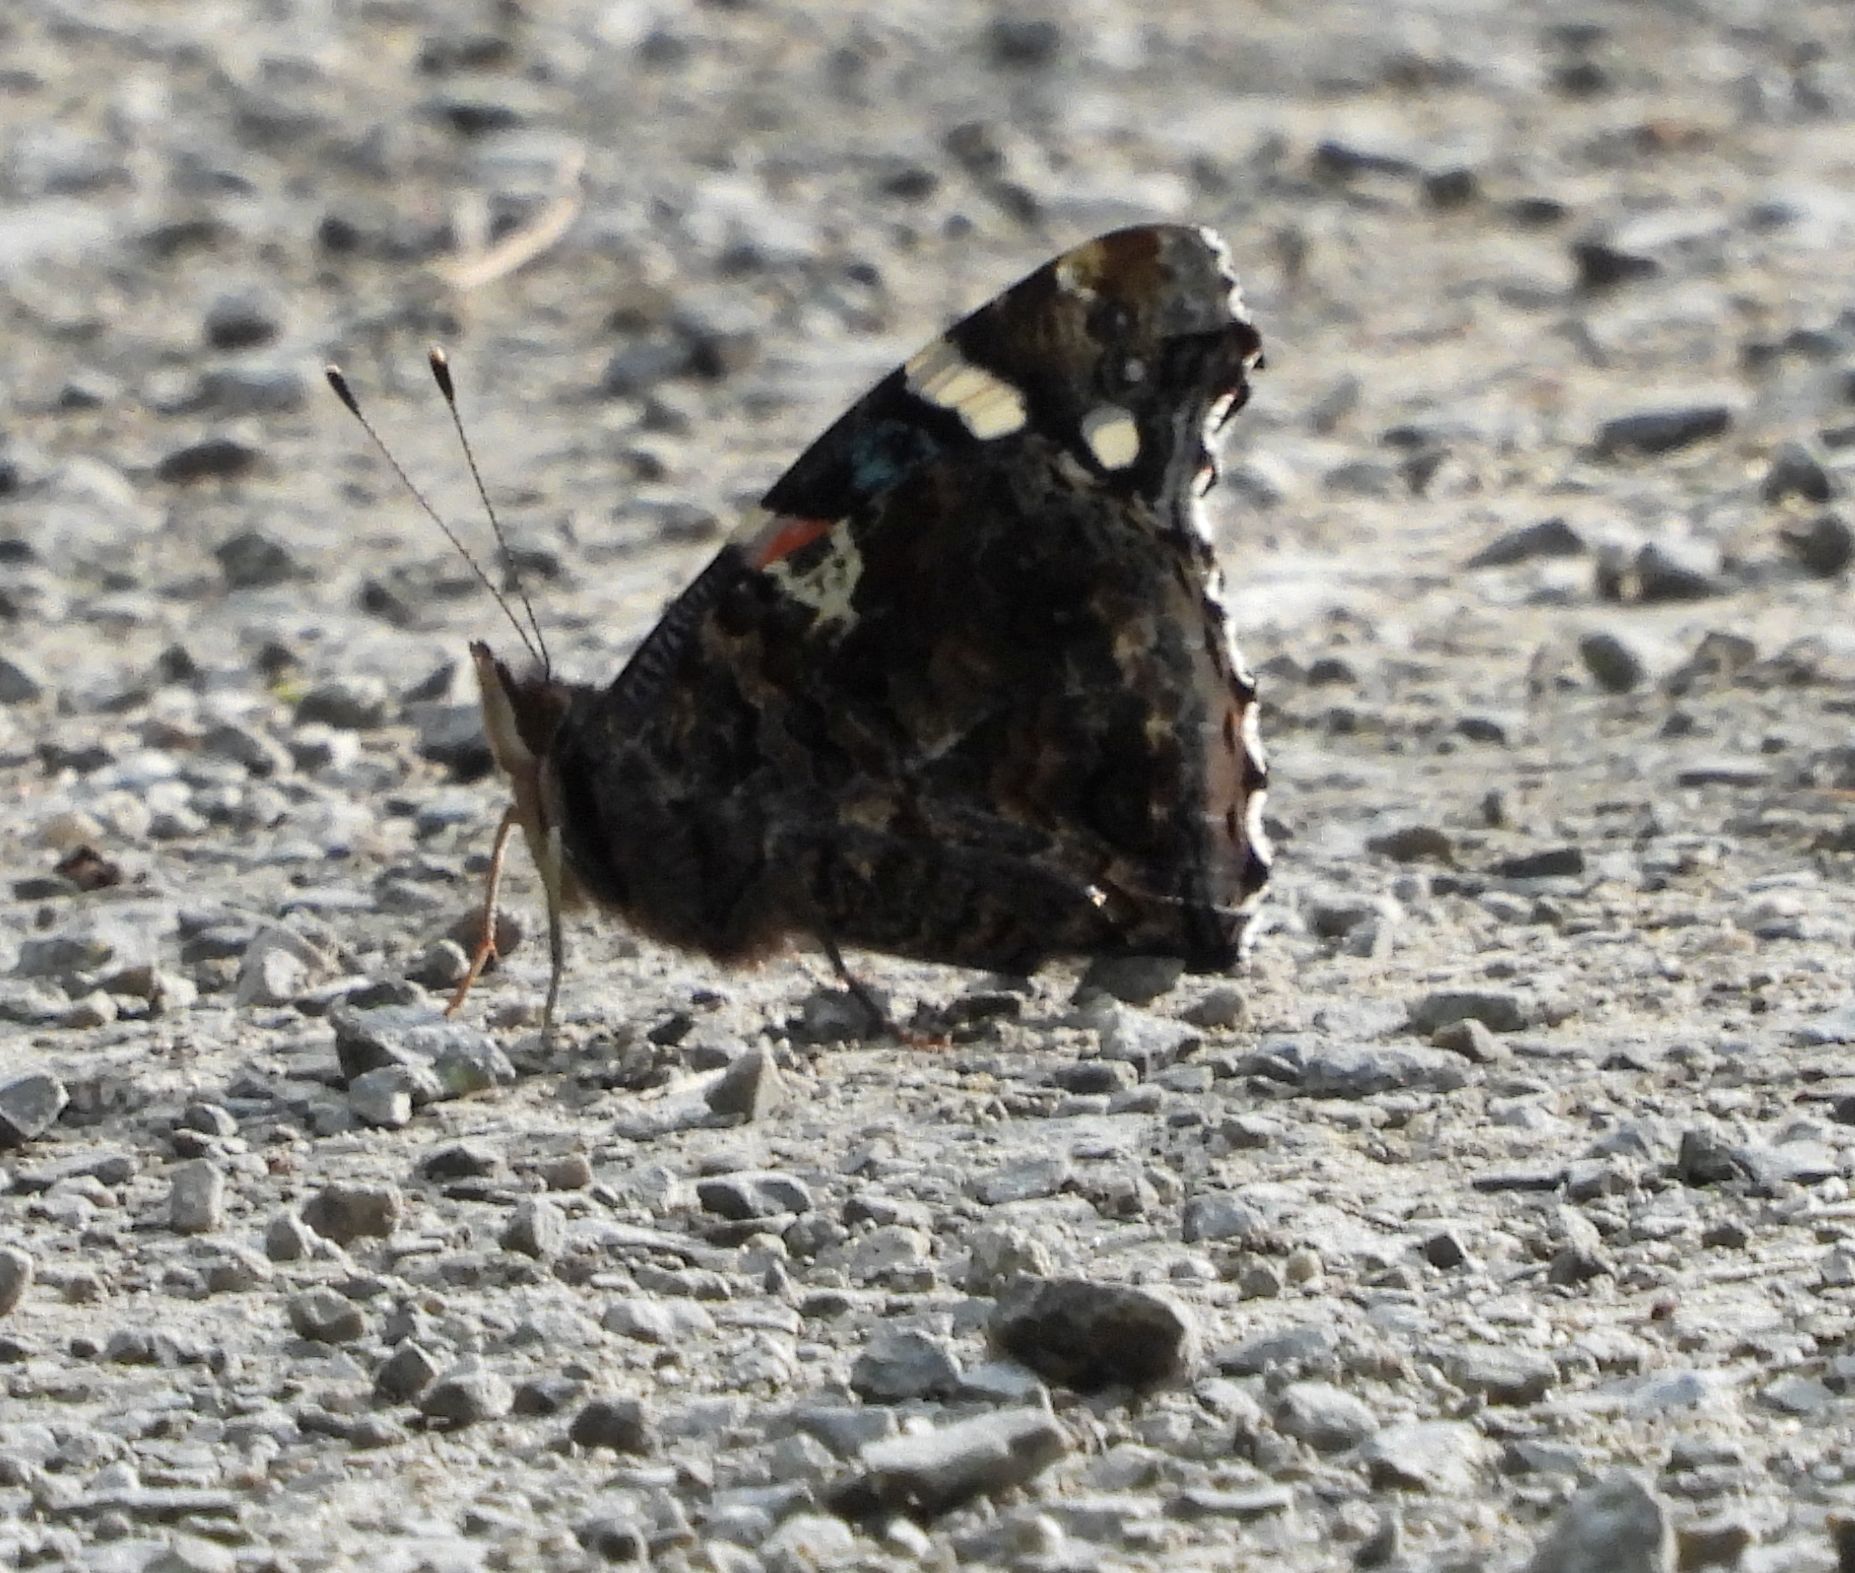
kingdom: Animalia
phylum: Arthropoda
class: Insecta
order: Lepidoptera
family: Nymphalidae
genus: Vanessa
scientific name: Vanessa atalanta
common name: Red admiral
